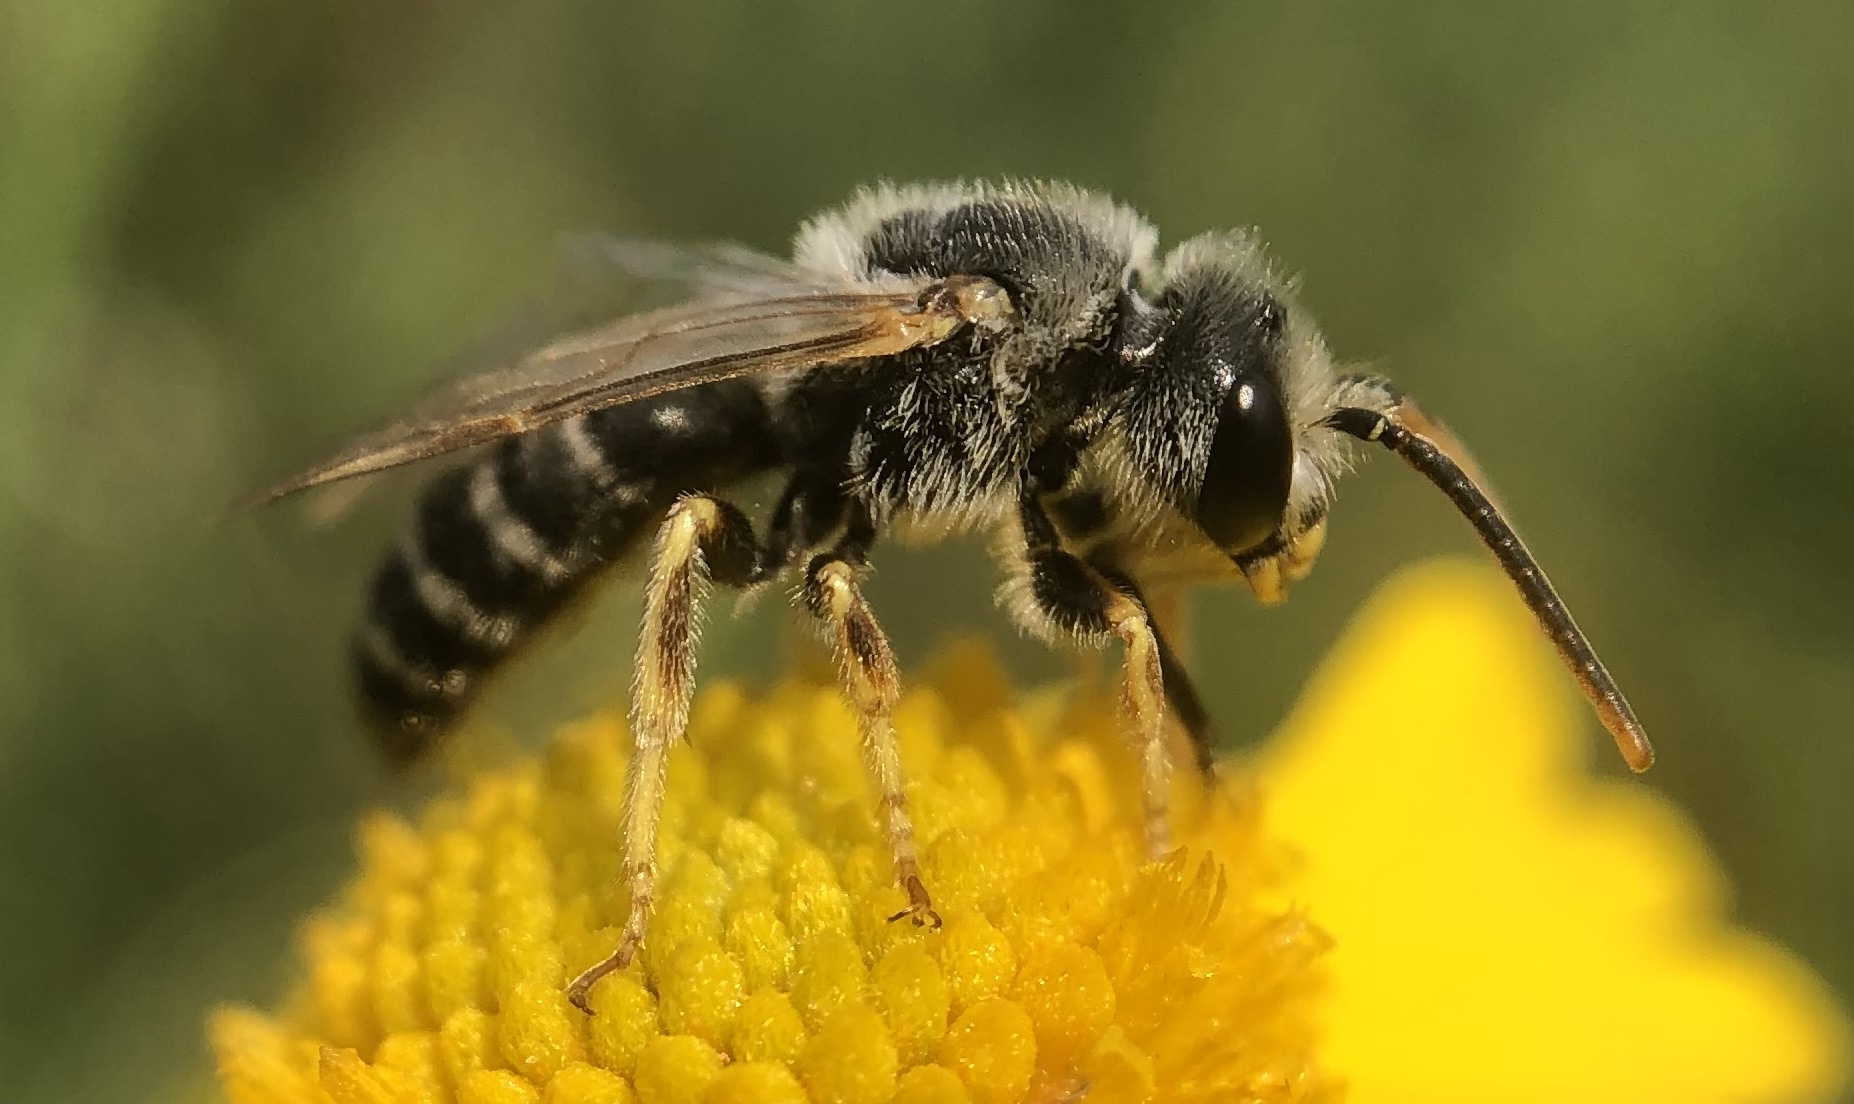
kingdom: Animalia
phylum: Arthropoda
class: Insecta
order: Hymenoptera
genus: Odontalictus
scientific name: Odontalictus
